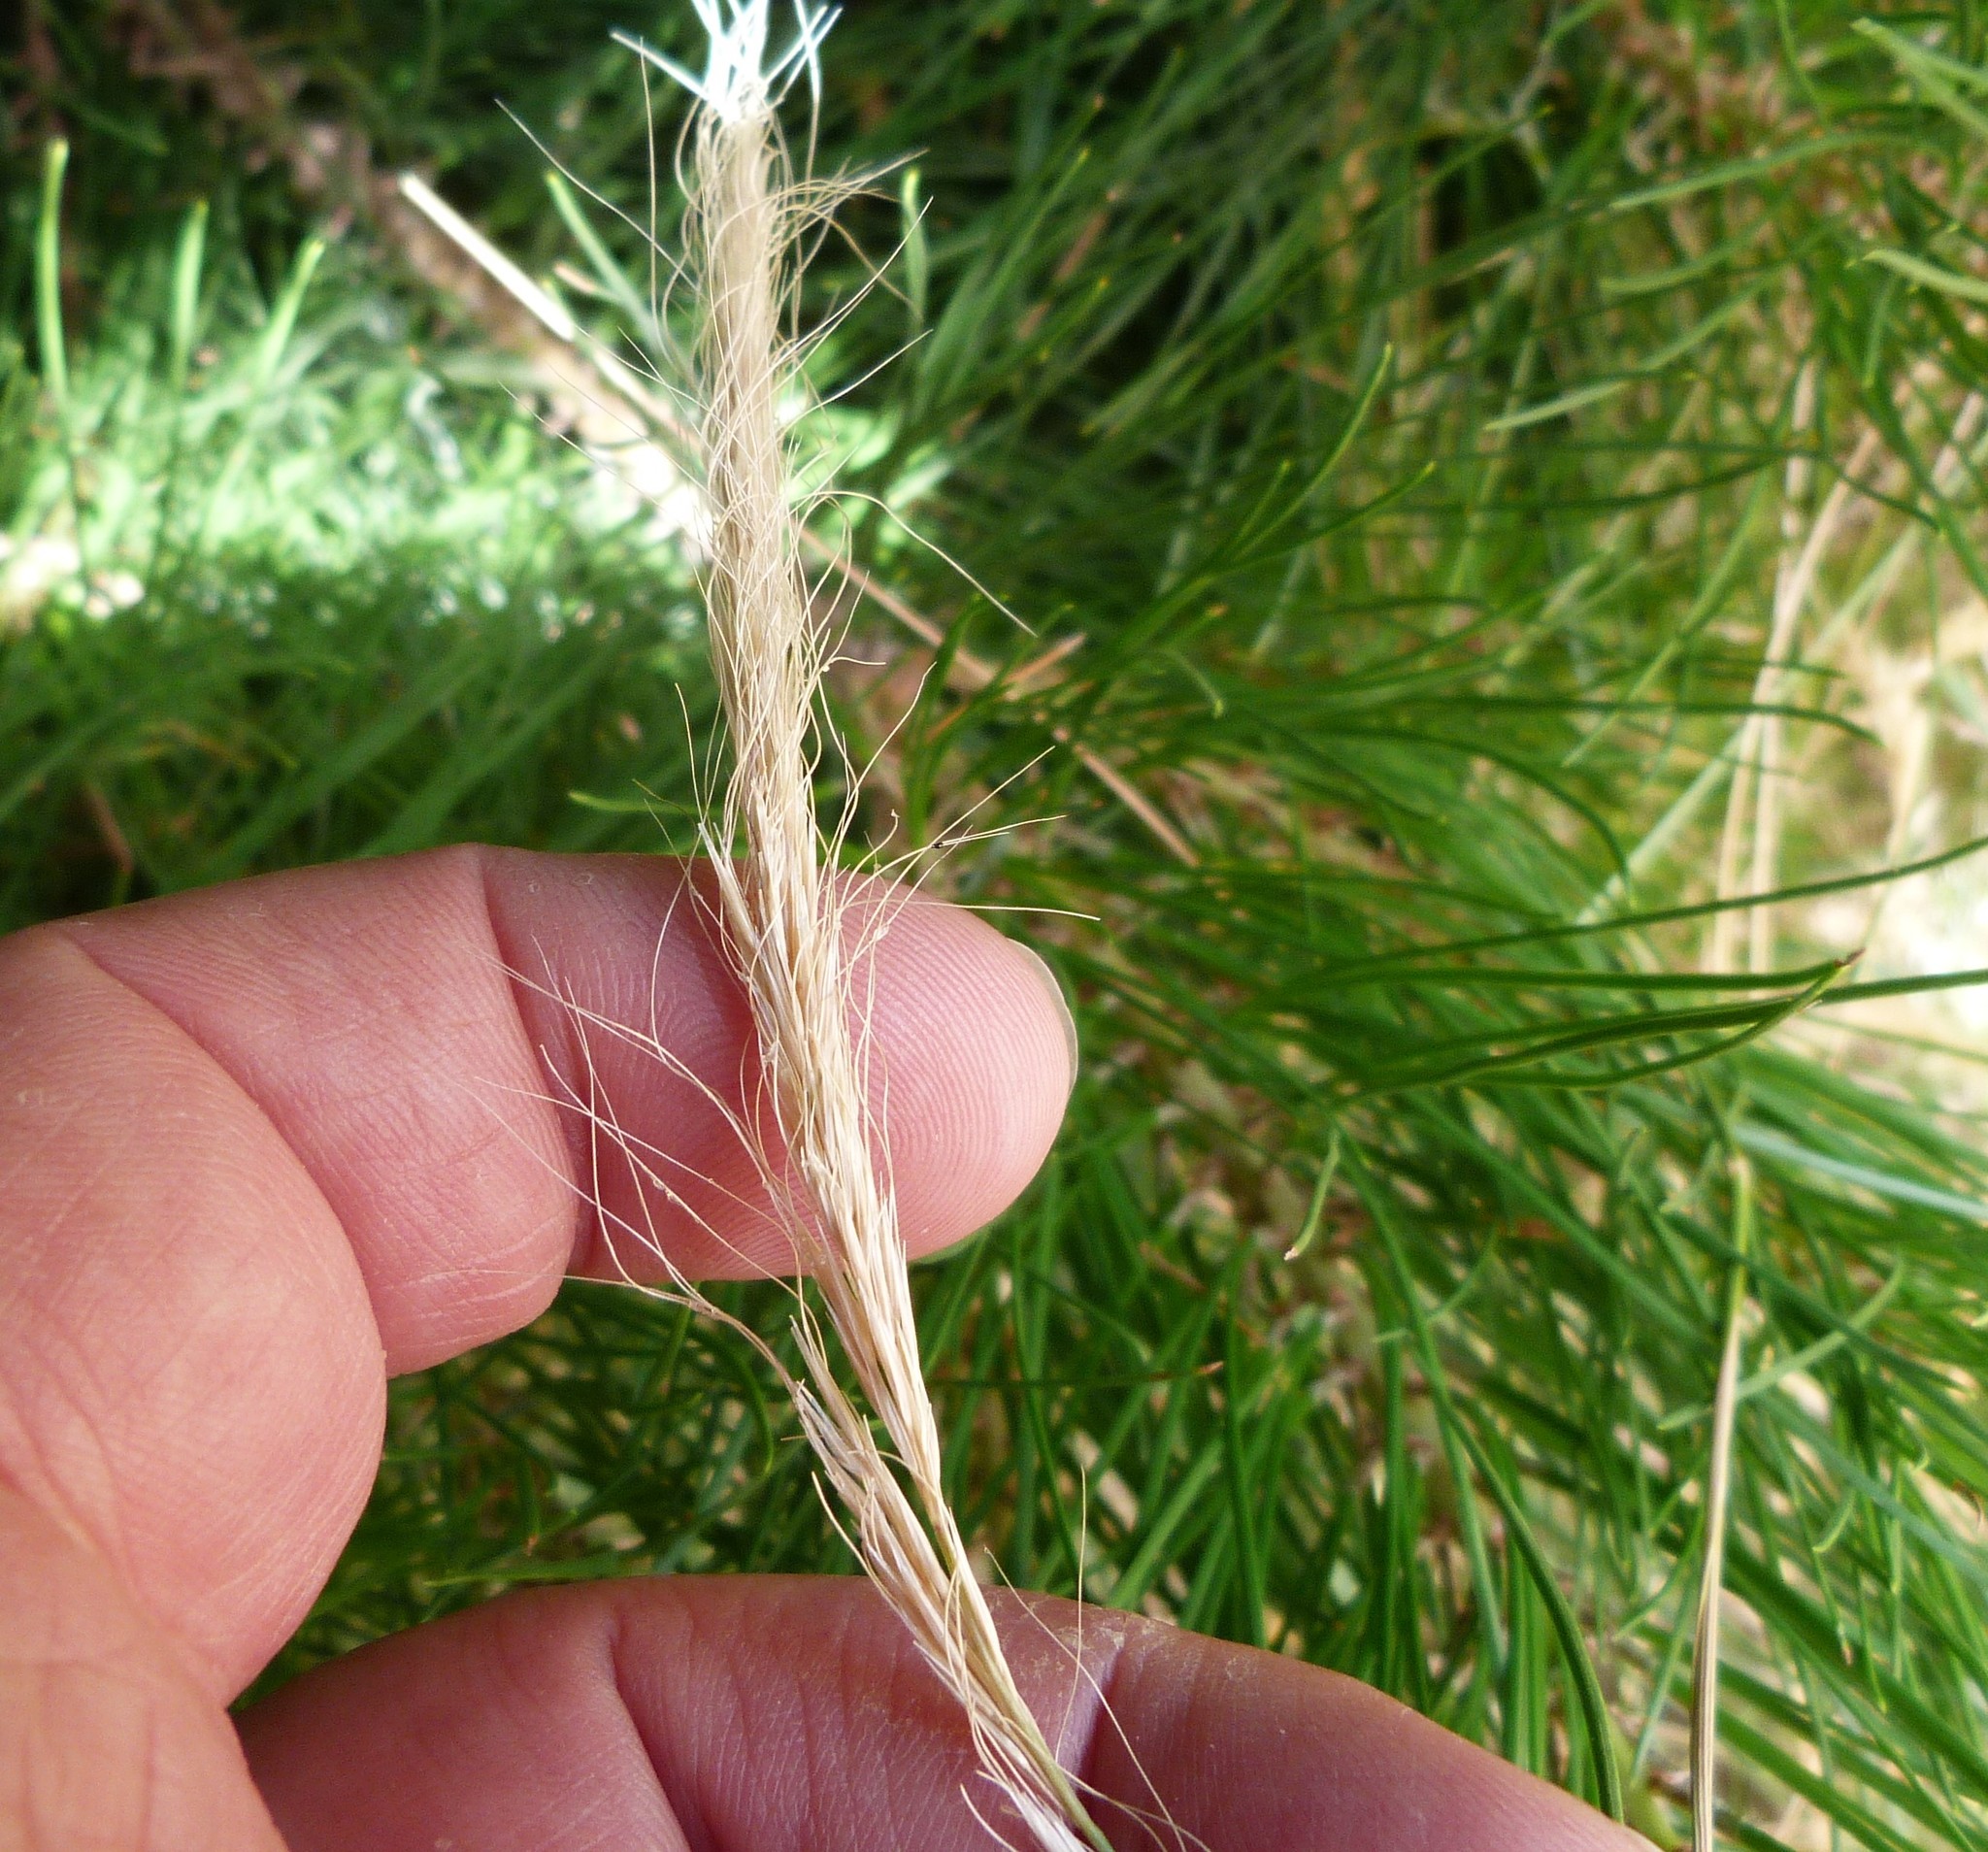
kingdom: Plantae
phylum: Tracheophyta
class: Liliopsida
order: Poales
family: Poaceae
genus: Dichelachne
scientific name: Dichelachne crinita
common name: Clovenfoot plumegrass
